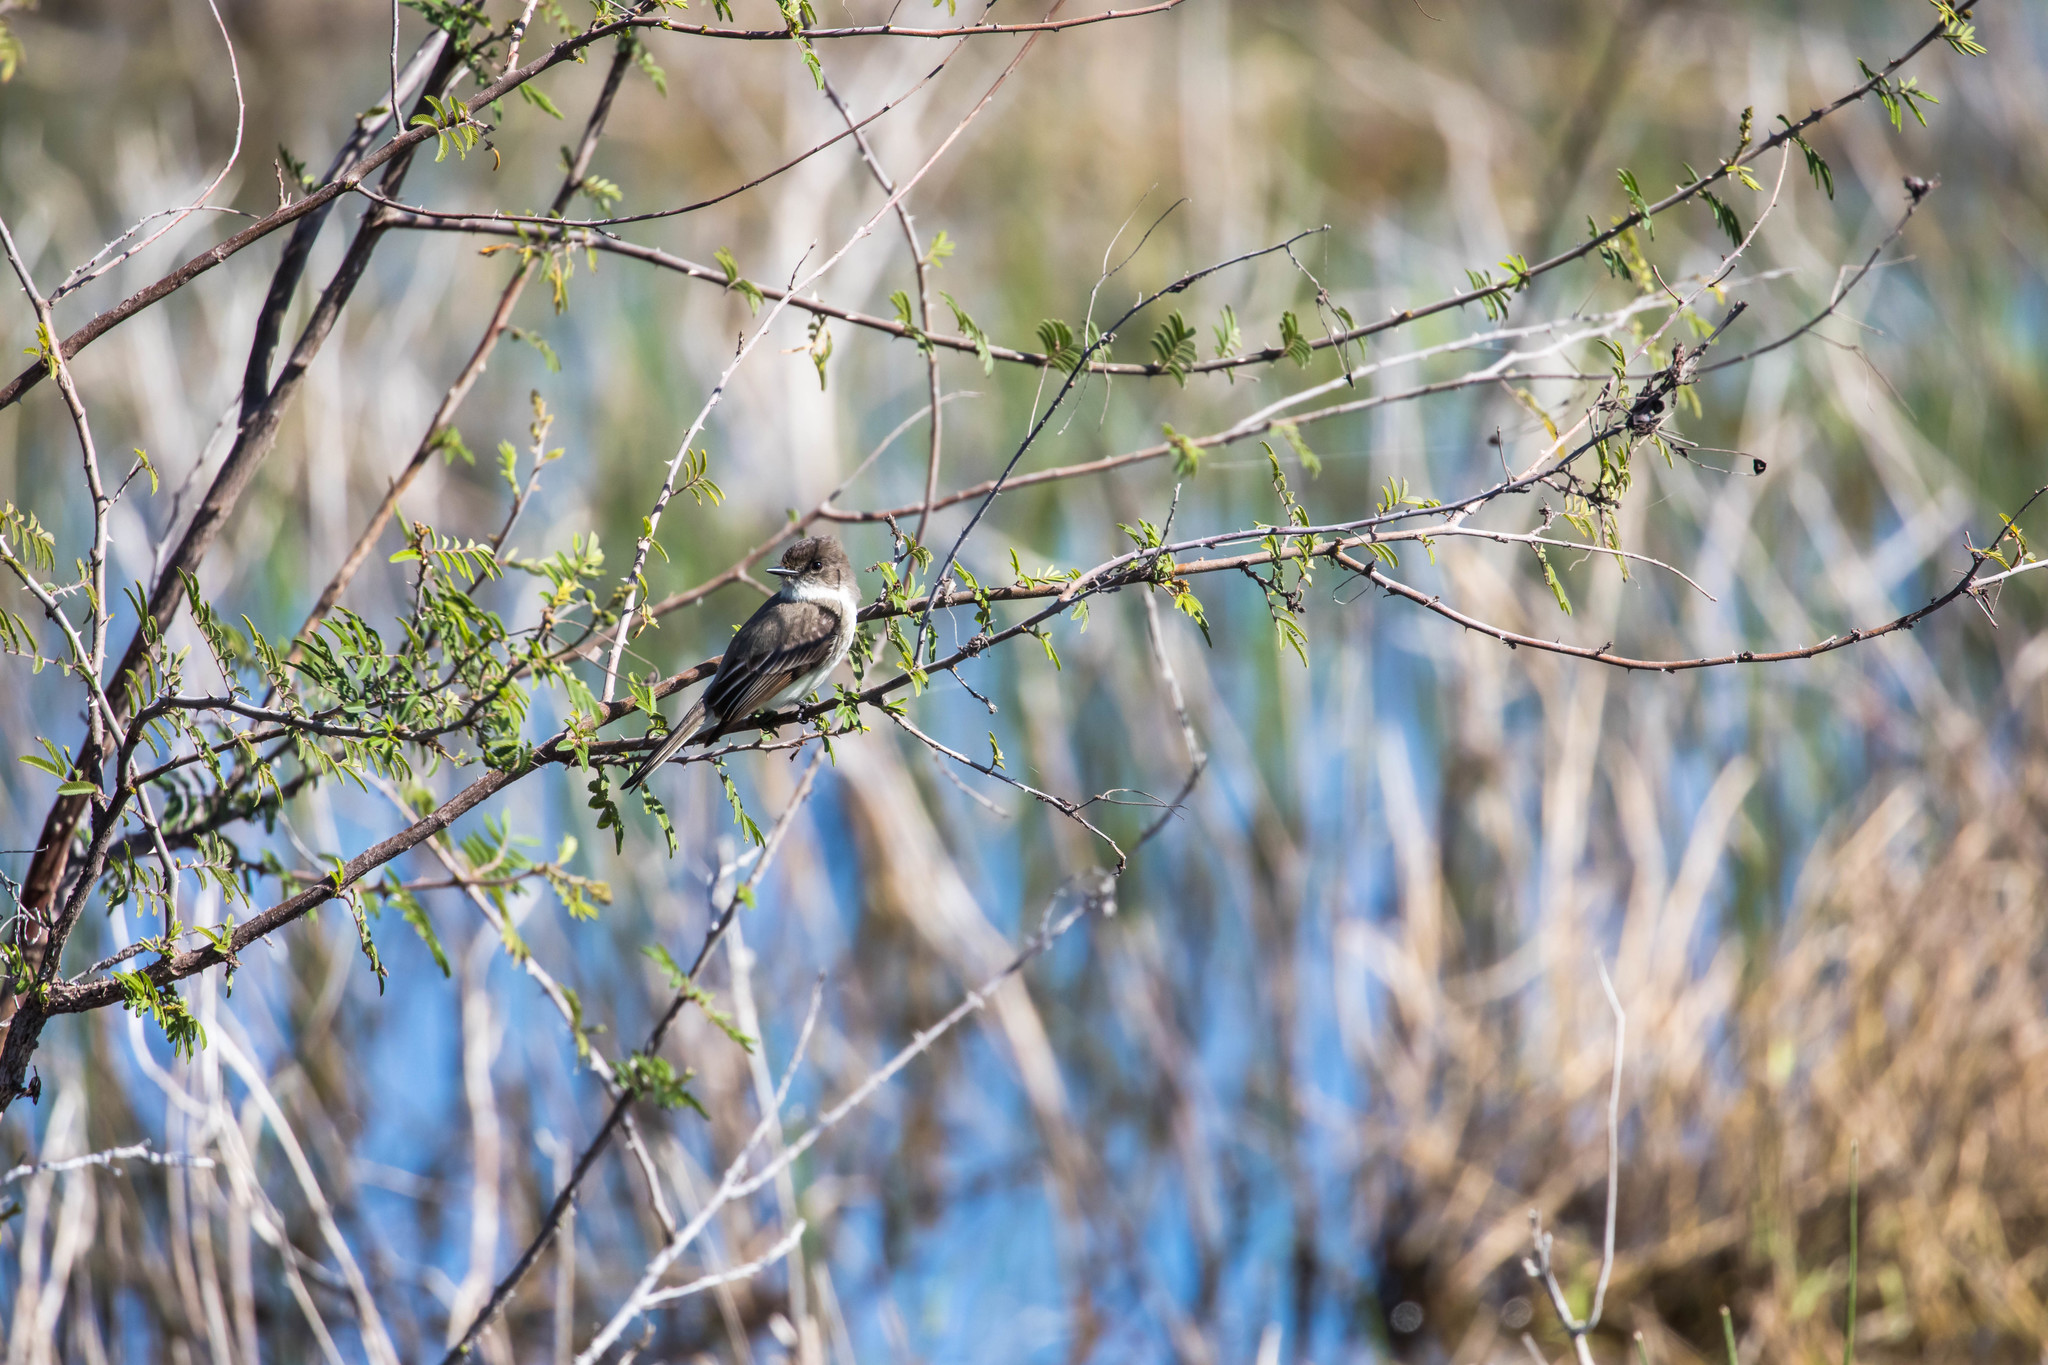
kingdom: Animalia
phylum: Chordata
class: Aves
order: Passeriformes
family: Tyrannidae
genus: Sayornis
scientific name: Sayornis phoebe
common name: Eastern phoebe
